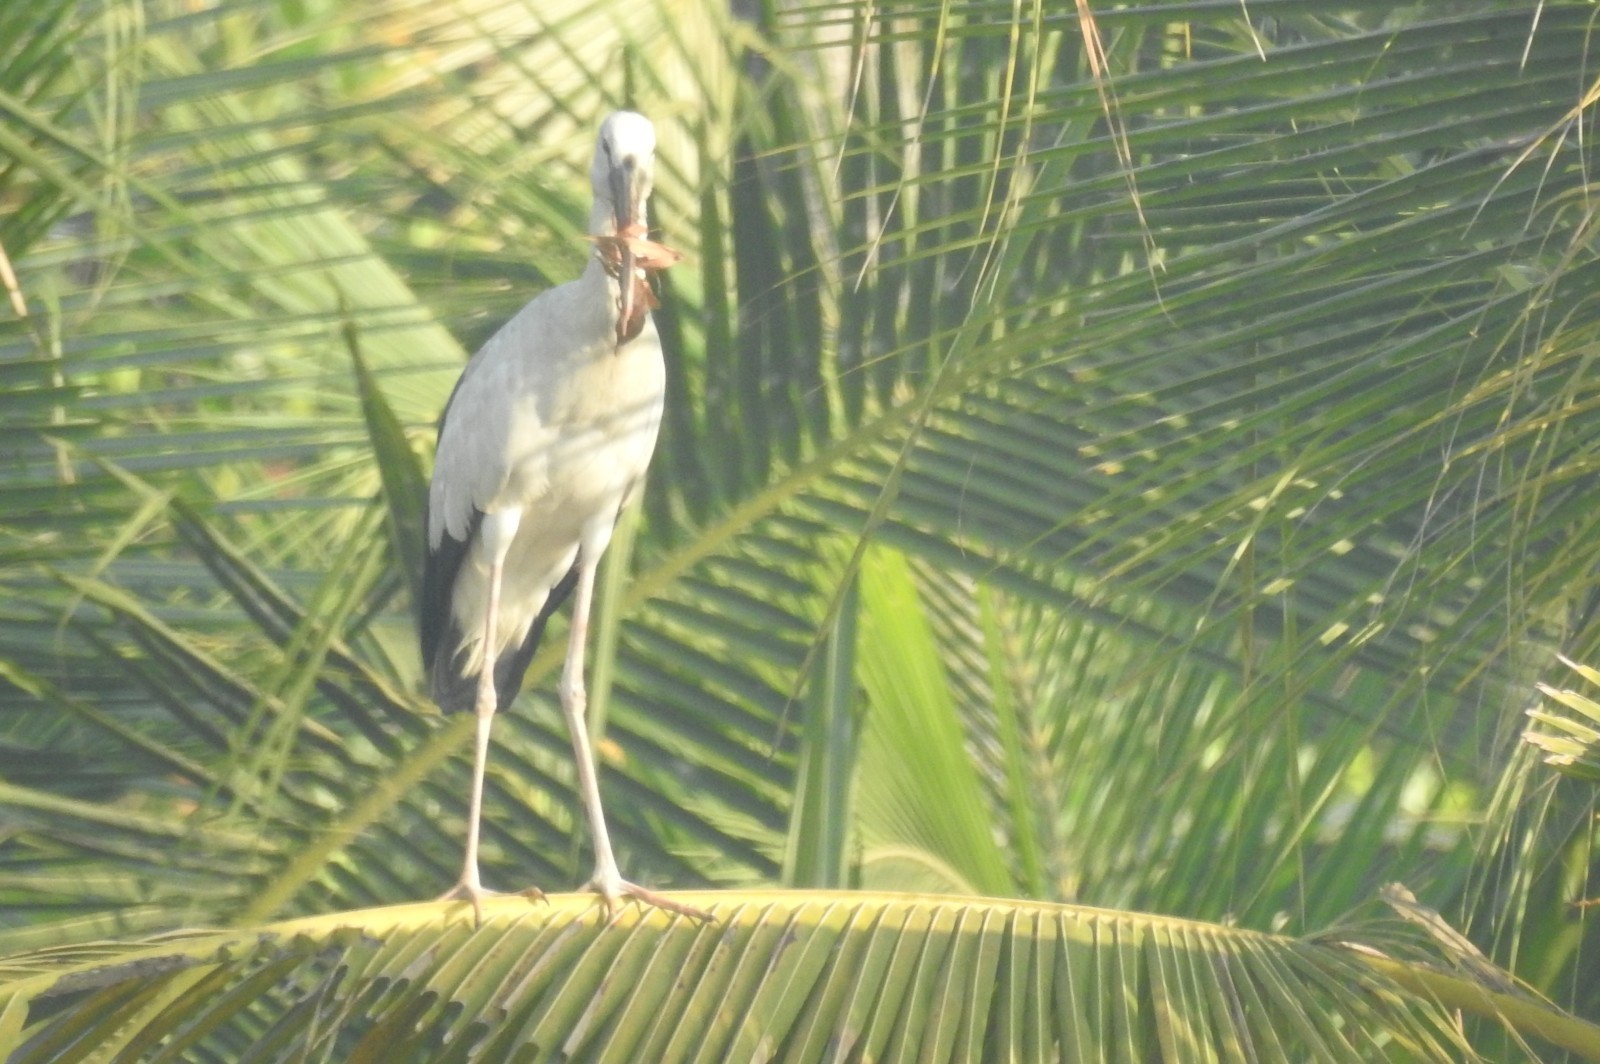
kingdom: Animalia
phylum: Chordata
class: Aves
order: Ciconiiformes
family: Ciconiidae
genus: Anastomus
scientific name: Anastomus oscitans
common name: Asian openbill
